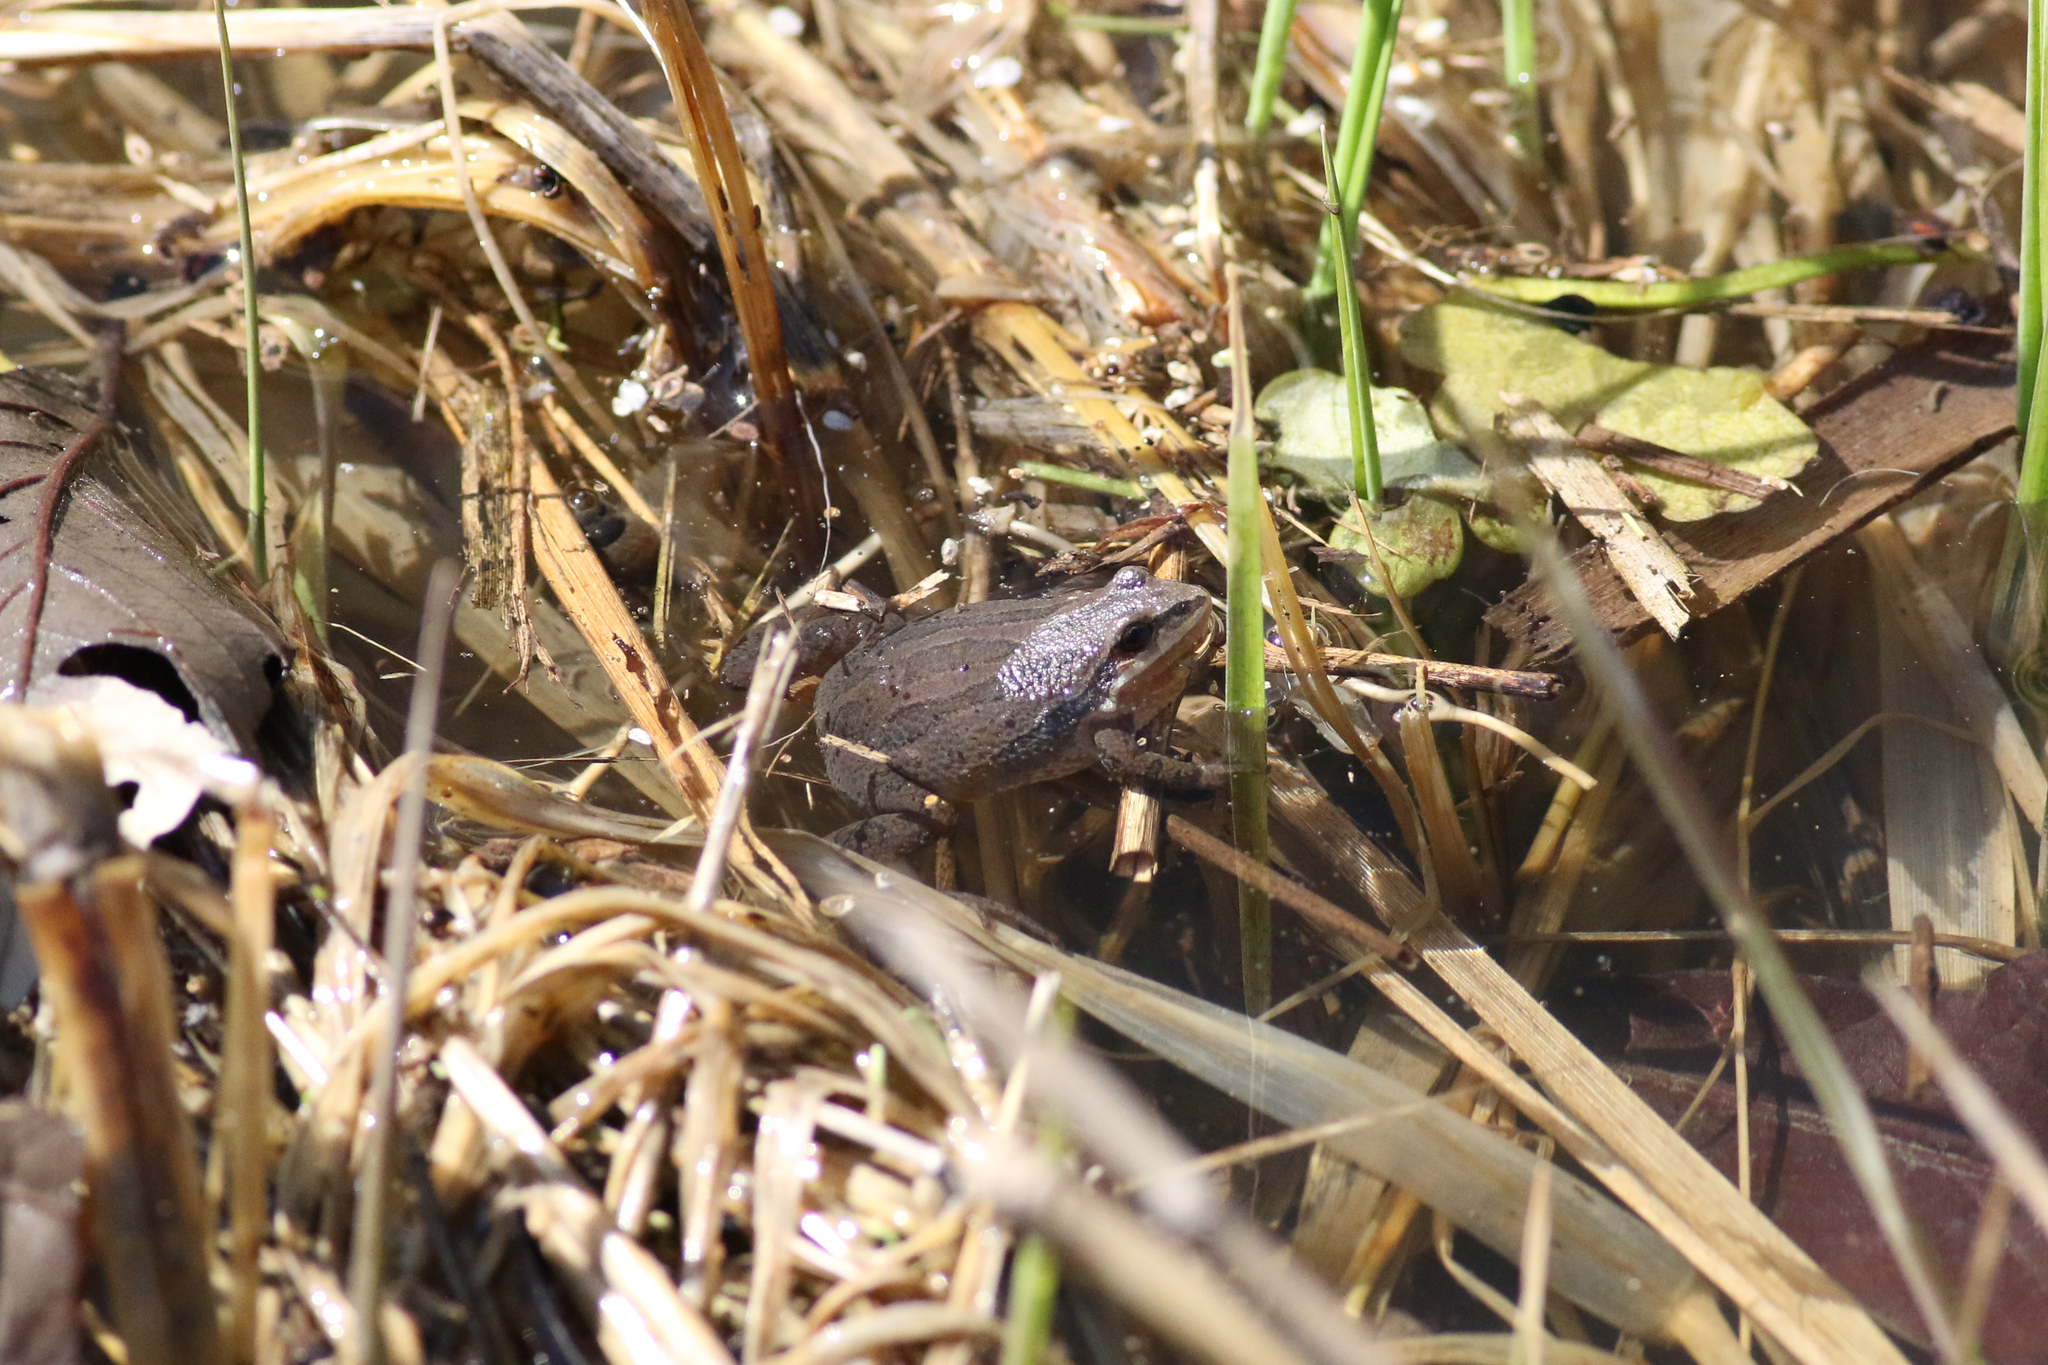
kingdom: Animalia
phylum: Chordata
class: Amphibia
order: Anura
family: Hylidae
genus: Pseudacris
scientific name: Pseudacris triseriata
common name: Western chorus frog
